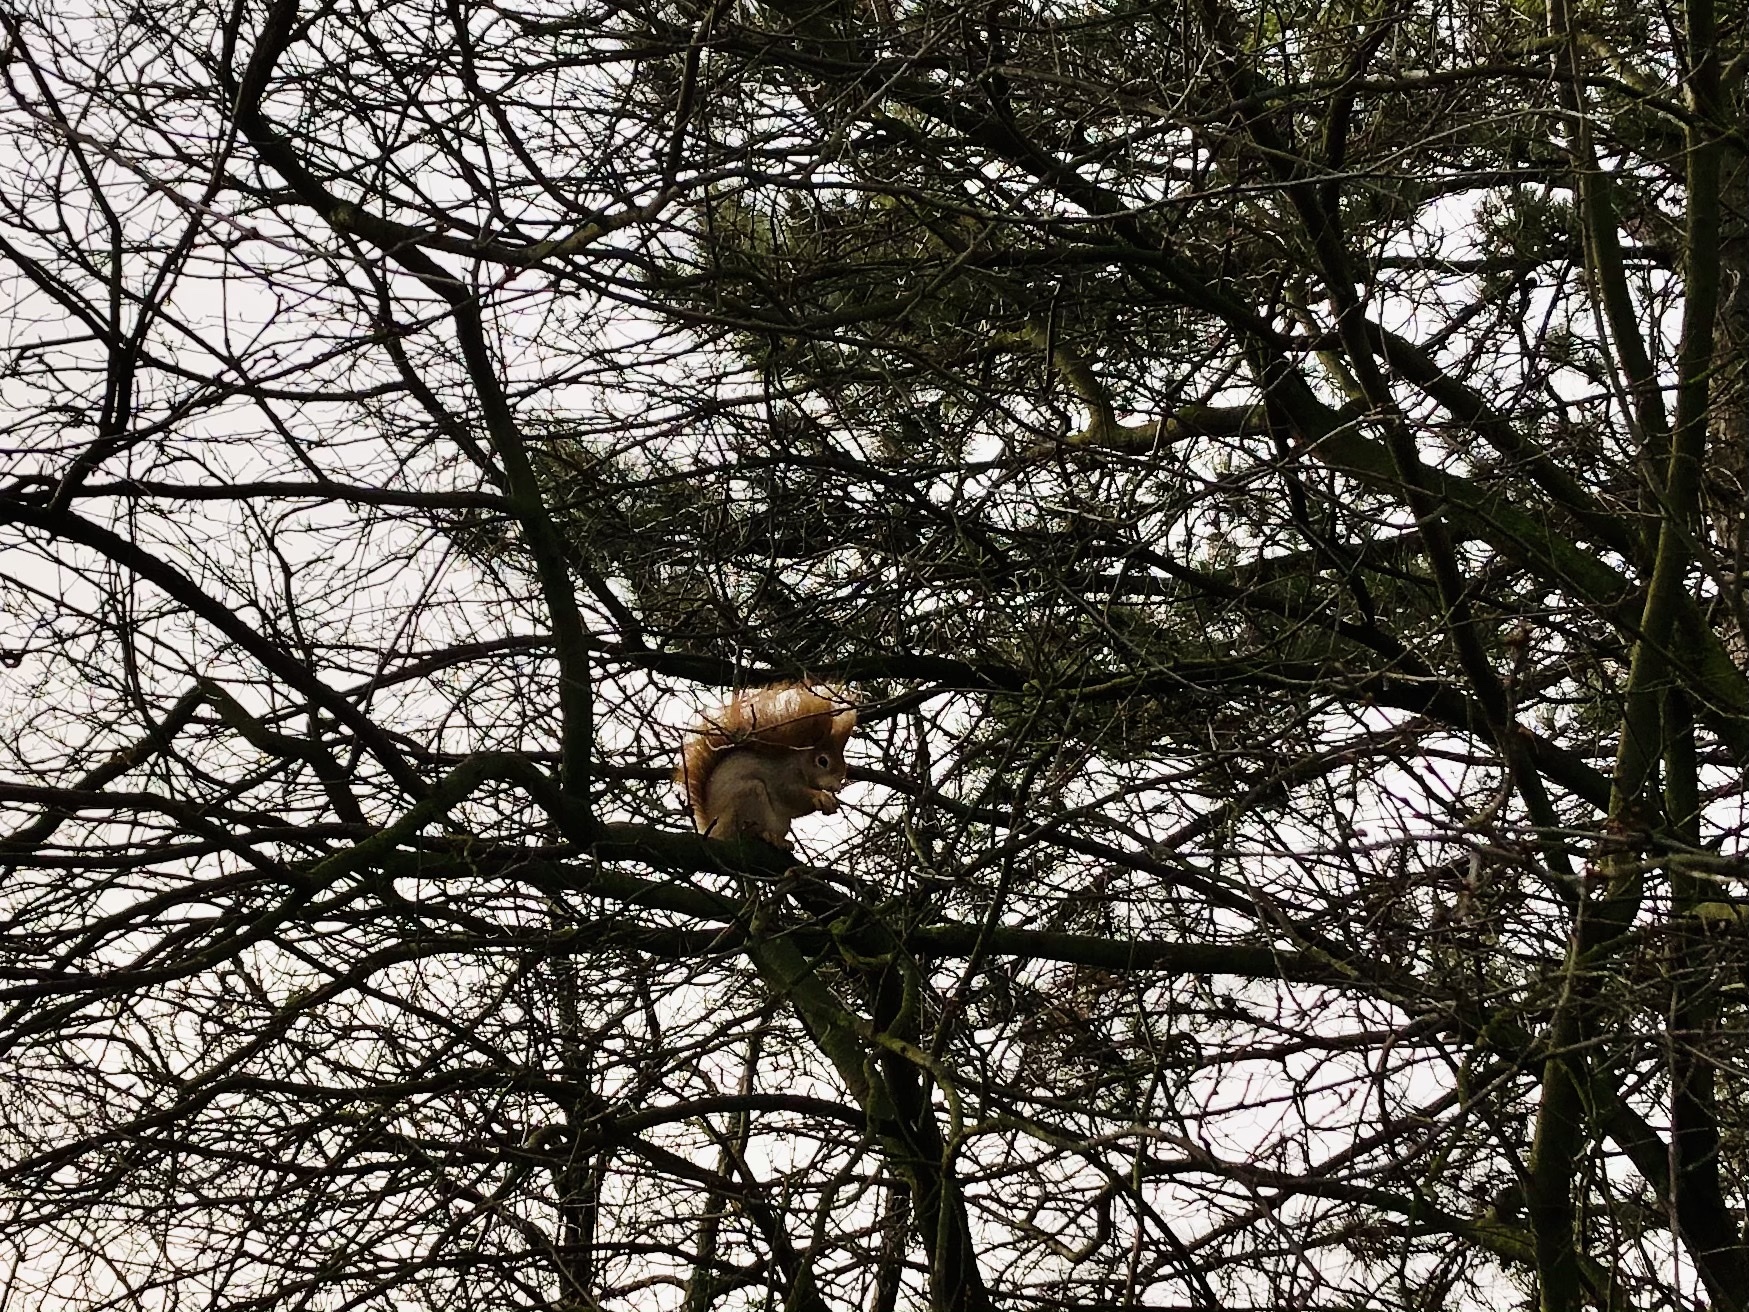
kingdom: Animalia
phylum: Chordata
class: Mammalia
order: Rodentia
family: Sciuridae
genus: Sciurus
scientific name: Sciurus vulgaris
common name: Eurasian red squirrel
